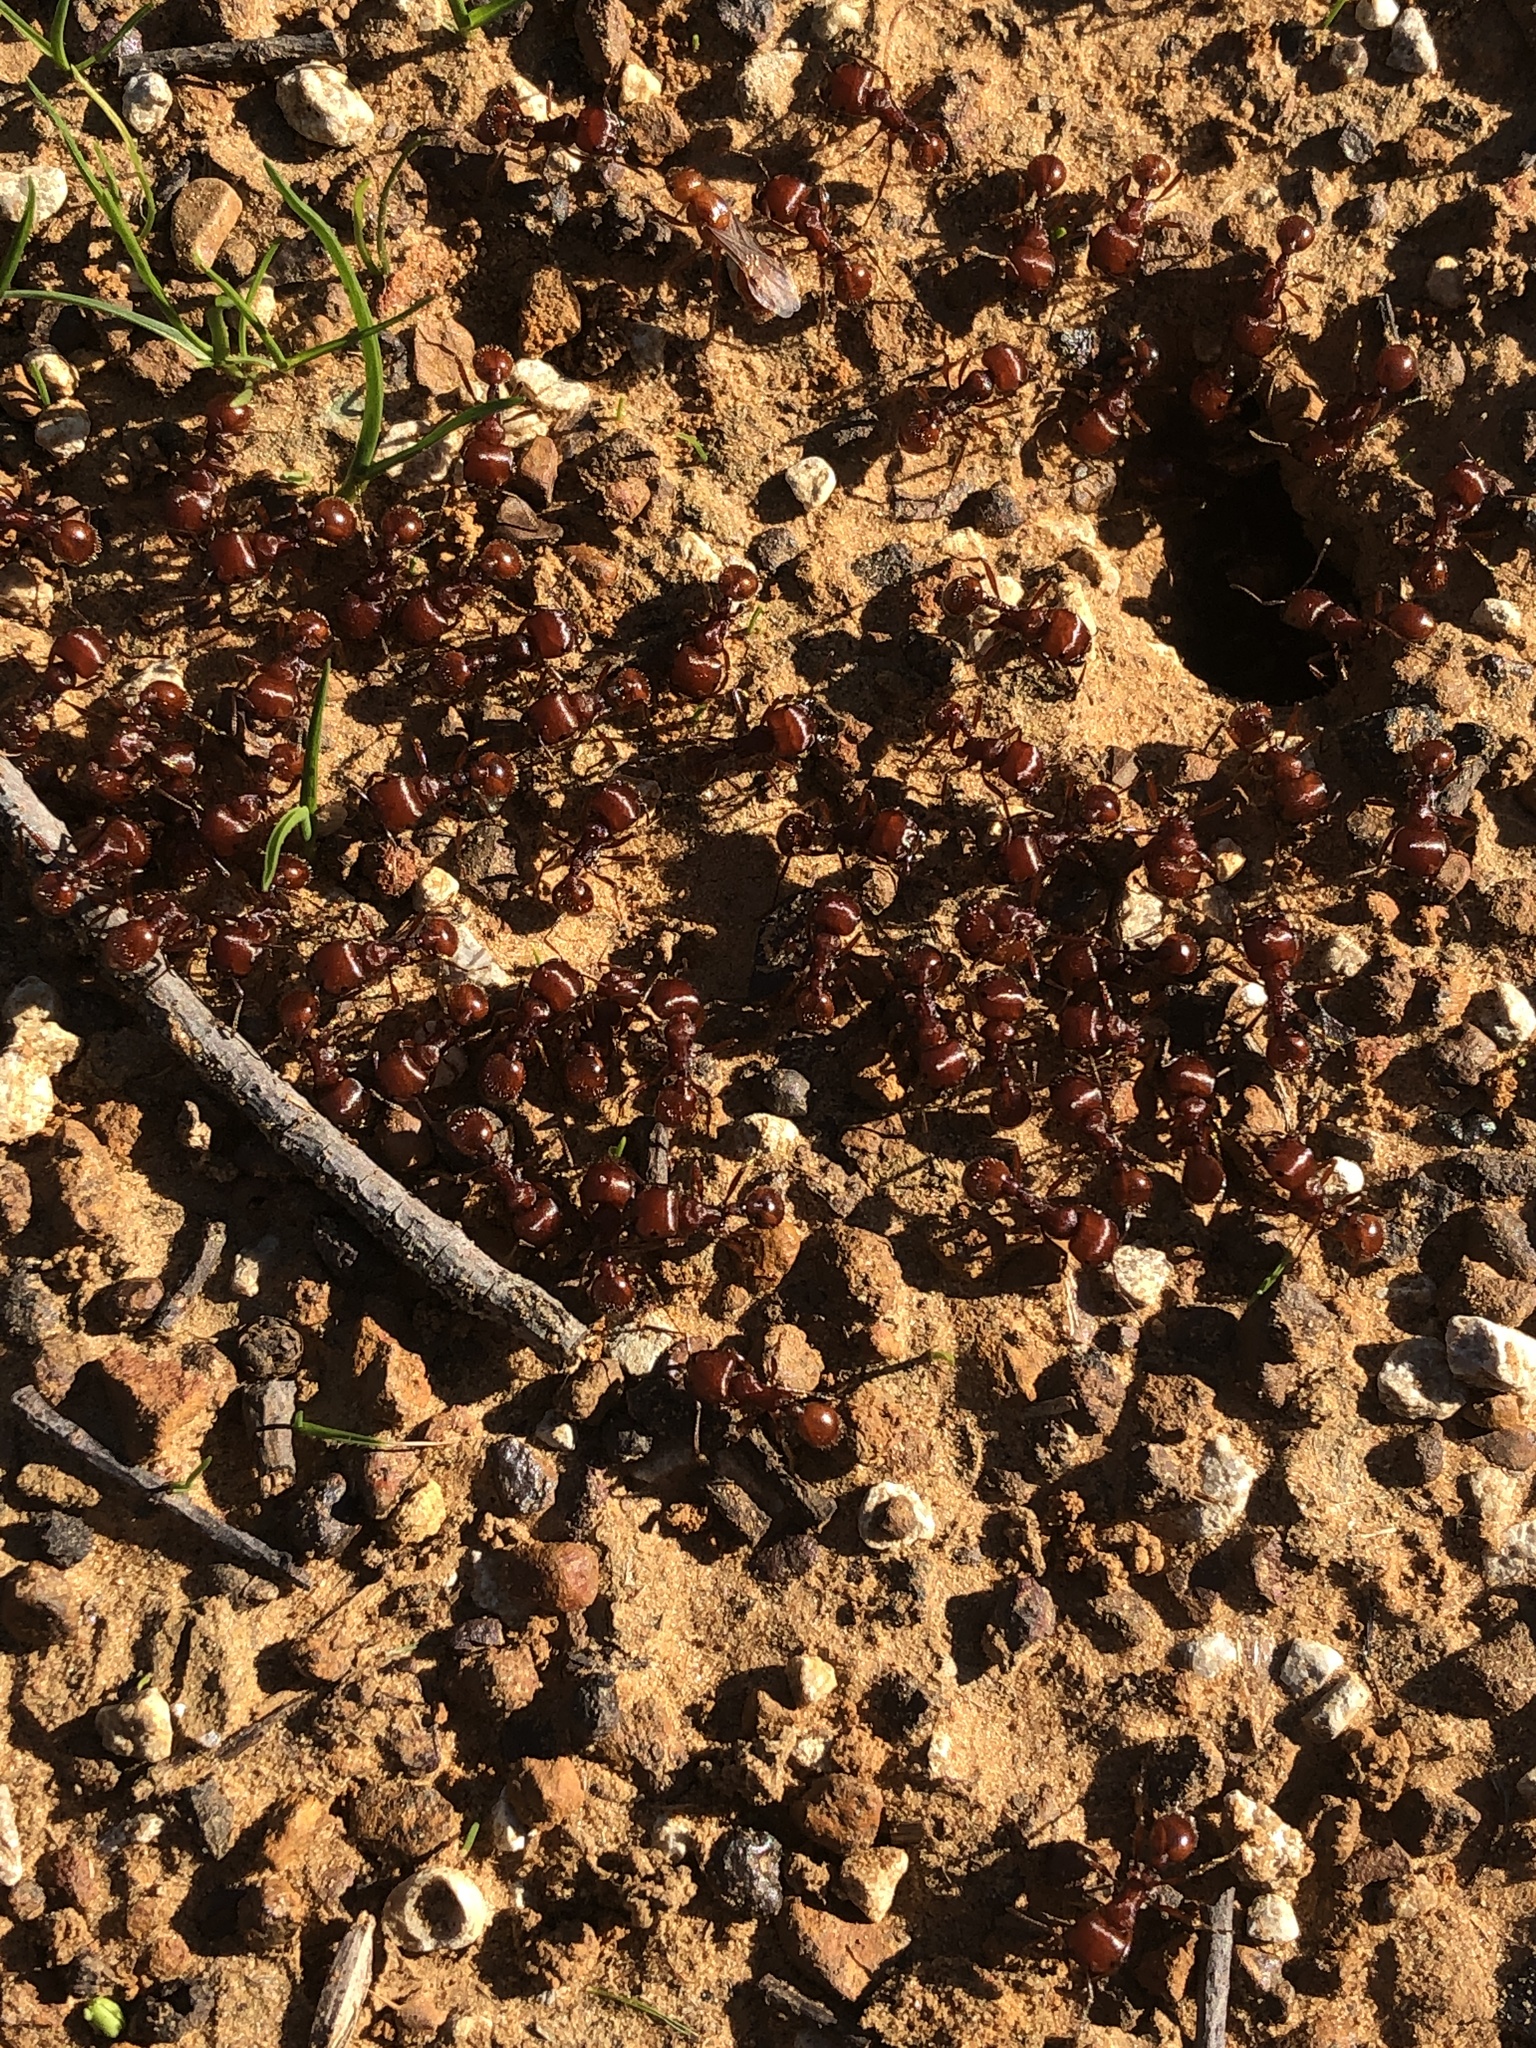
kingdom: Animalia
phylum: Arthropoda
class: Insecta
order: Hymenoptera
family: Formicidae
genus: Pogonomyrmex
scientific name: Pogonomyrmex barbatus
